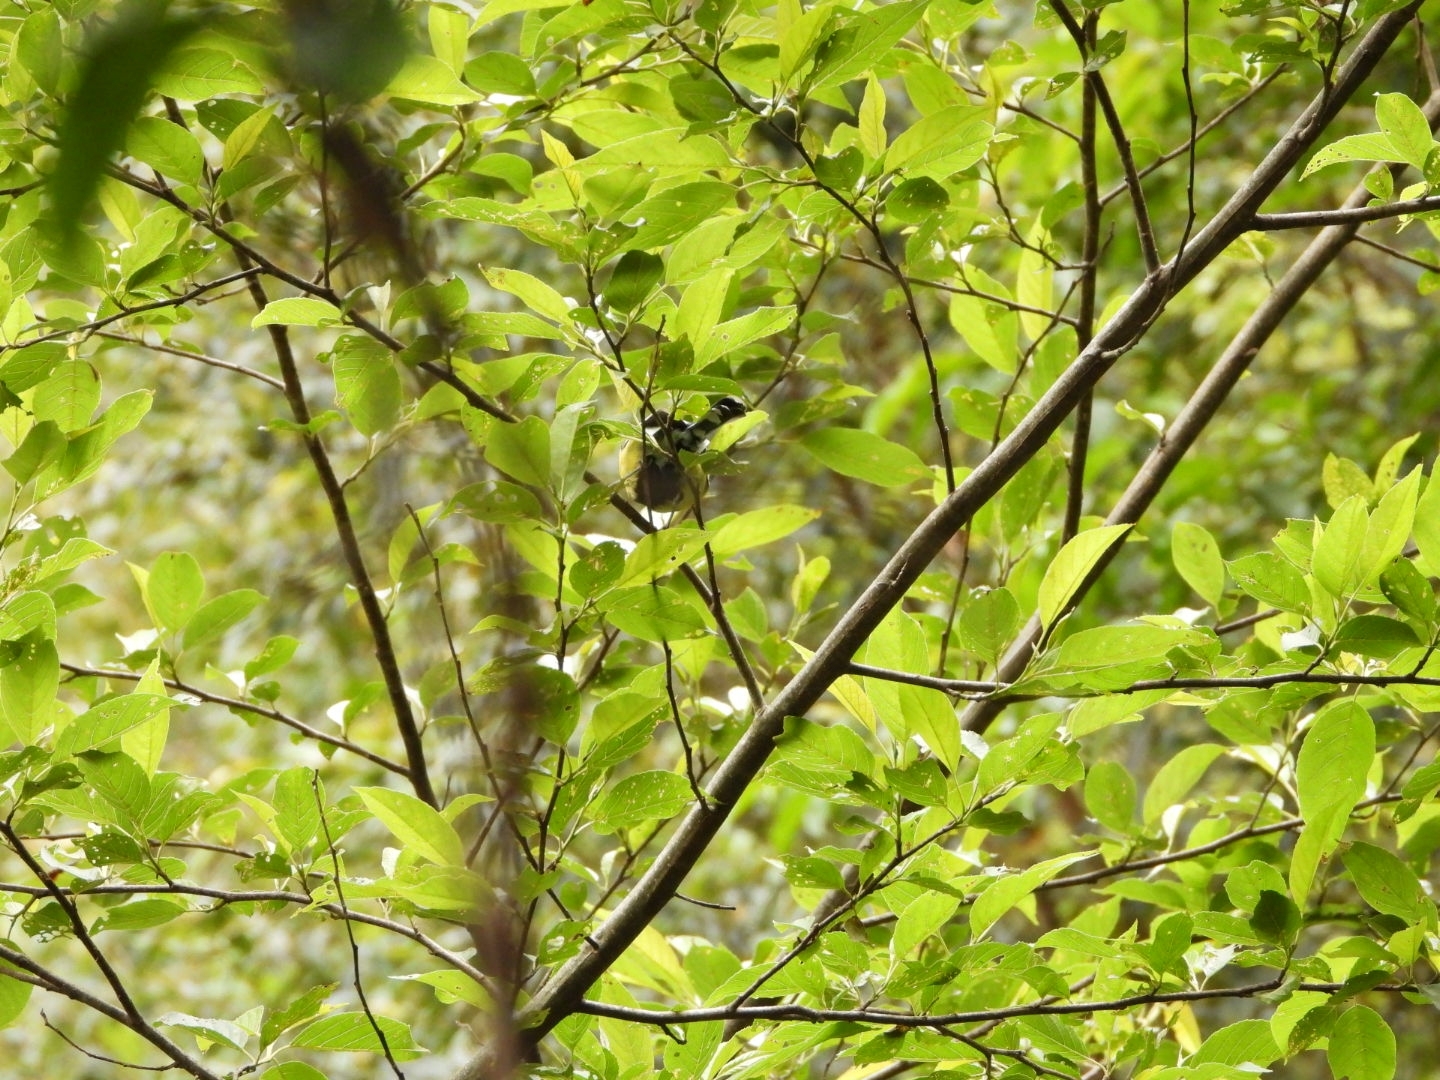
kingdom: Animalia
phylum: Chordata
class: Aves
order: Passeriformes
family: Paridae
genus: Parus
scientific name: Parus monticolus
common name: Green-backed tit
